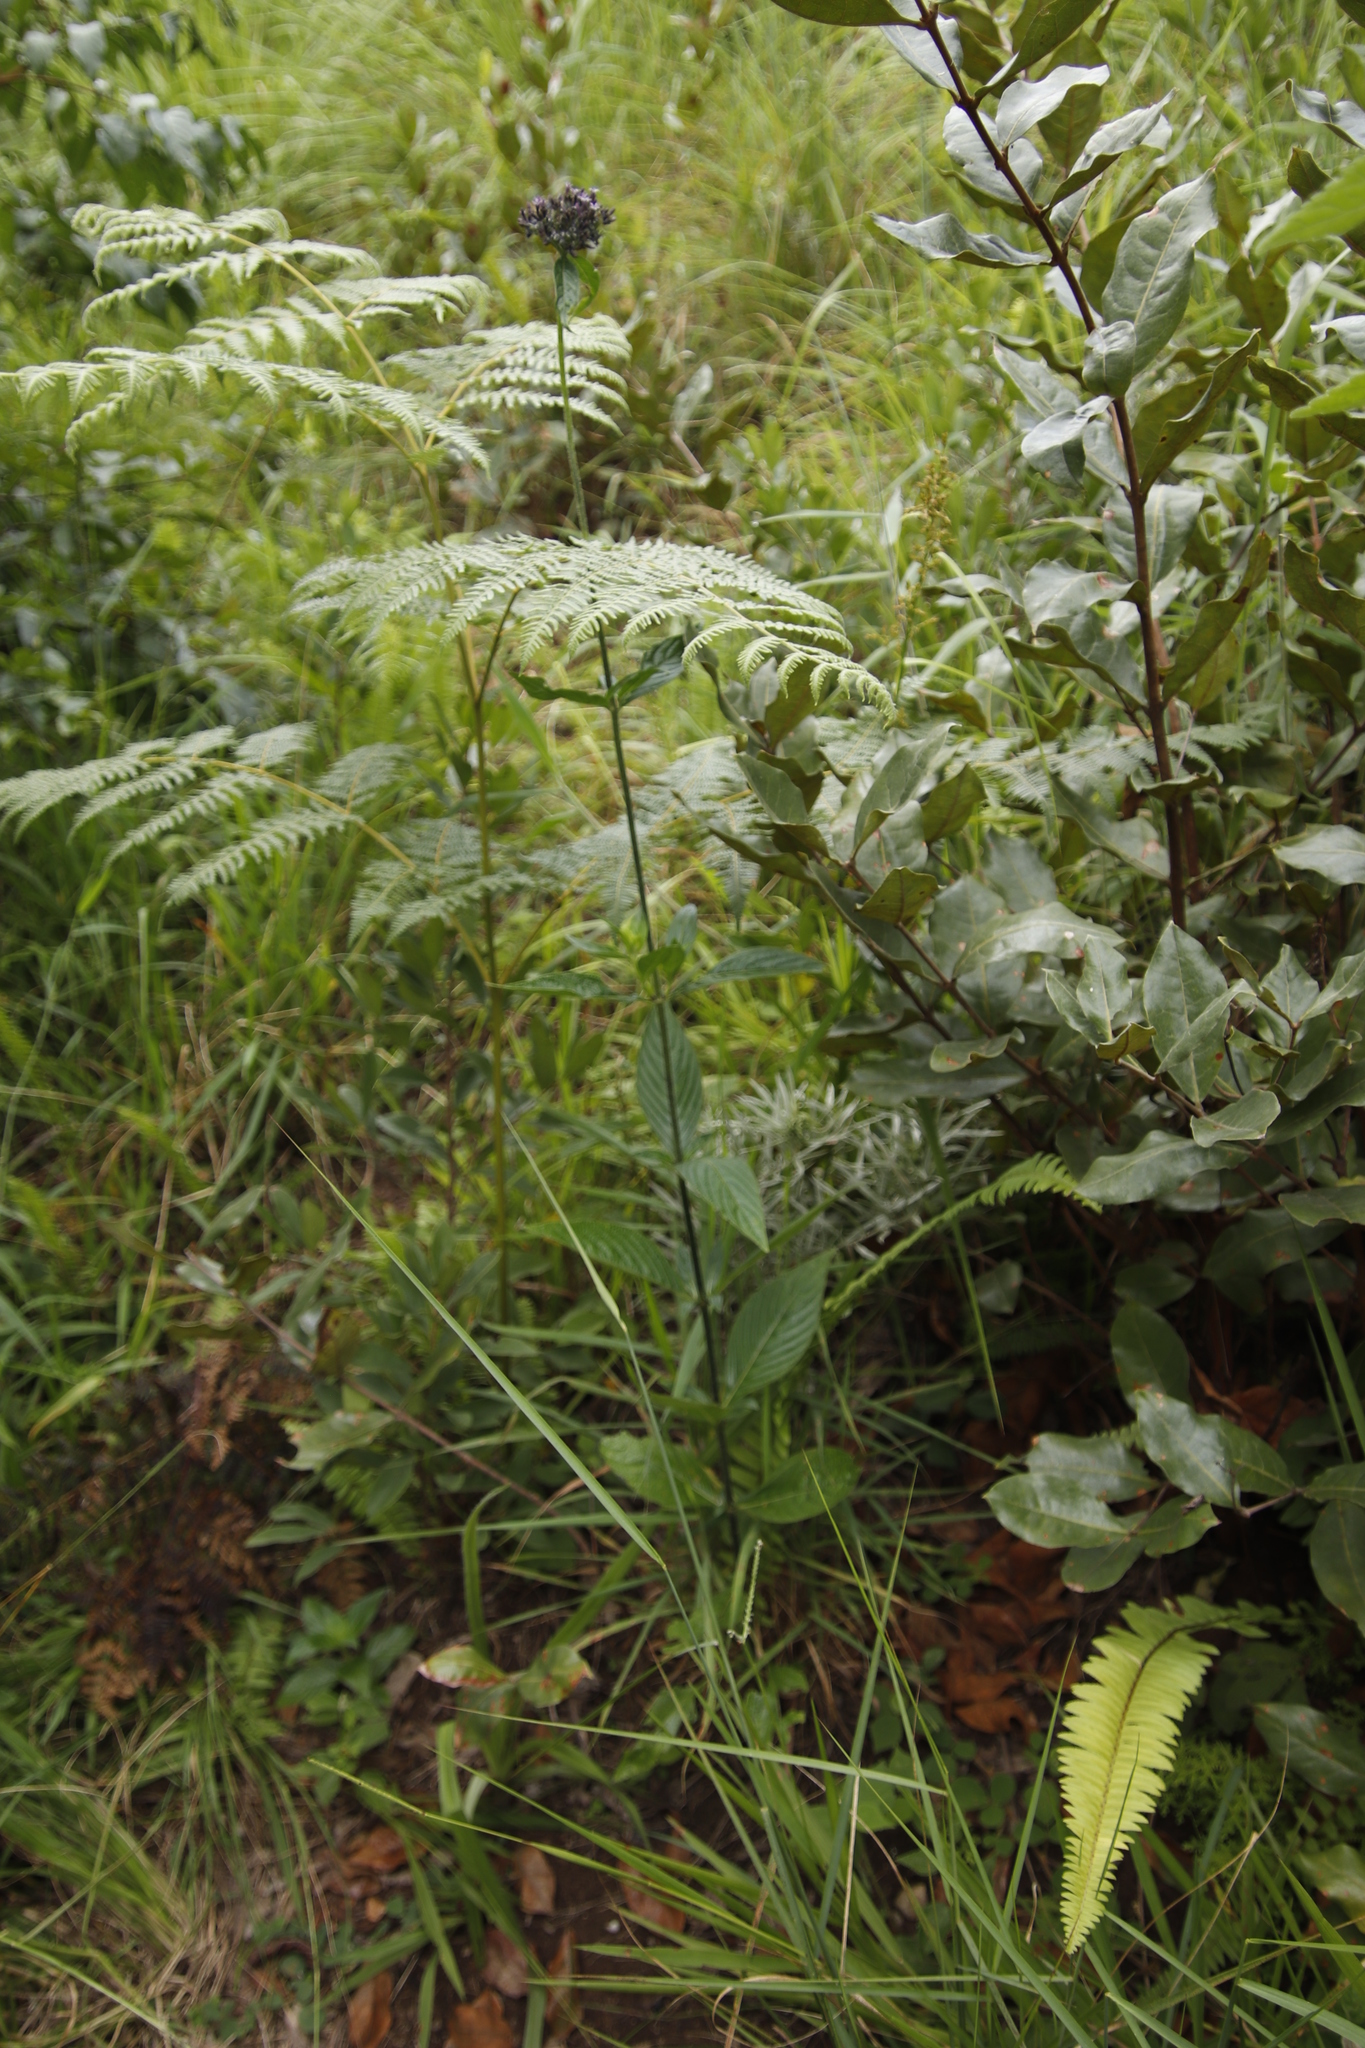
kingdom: Plantae
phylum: Tracheophyta
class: Polypodiopsida
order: Polypodiales
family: Dennstaedtiaceae
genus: Pteridium
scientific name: Pteridium aquilinum
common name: Bracken
